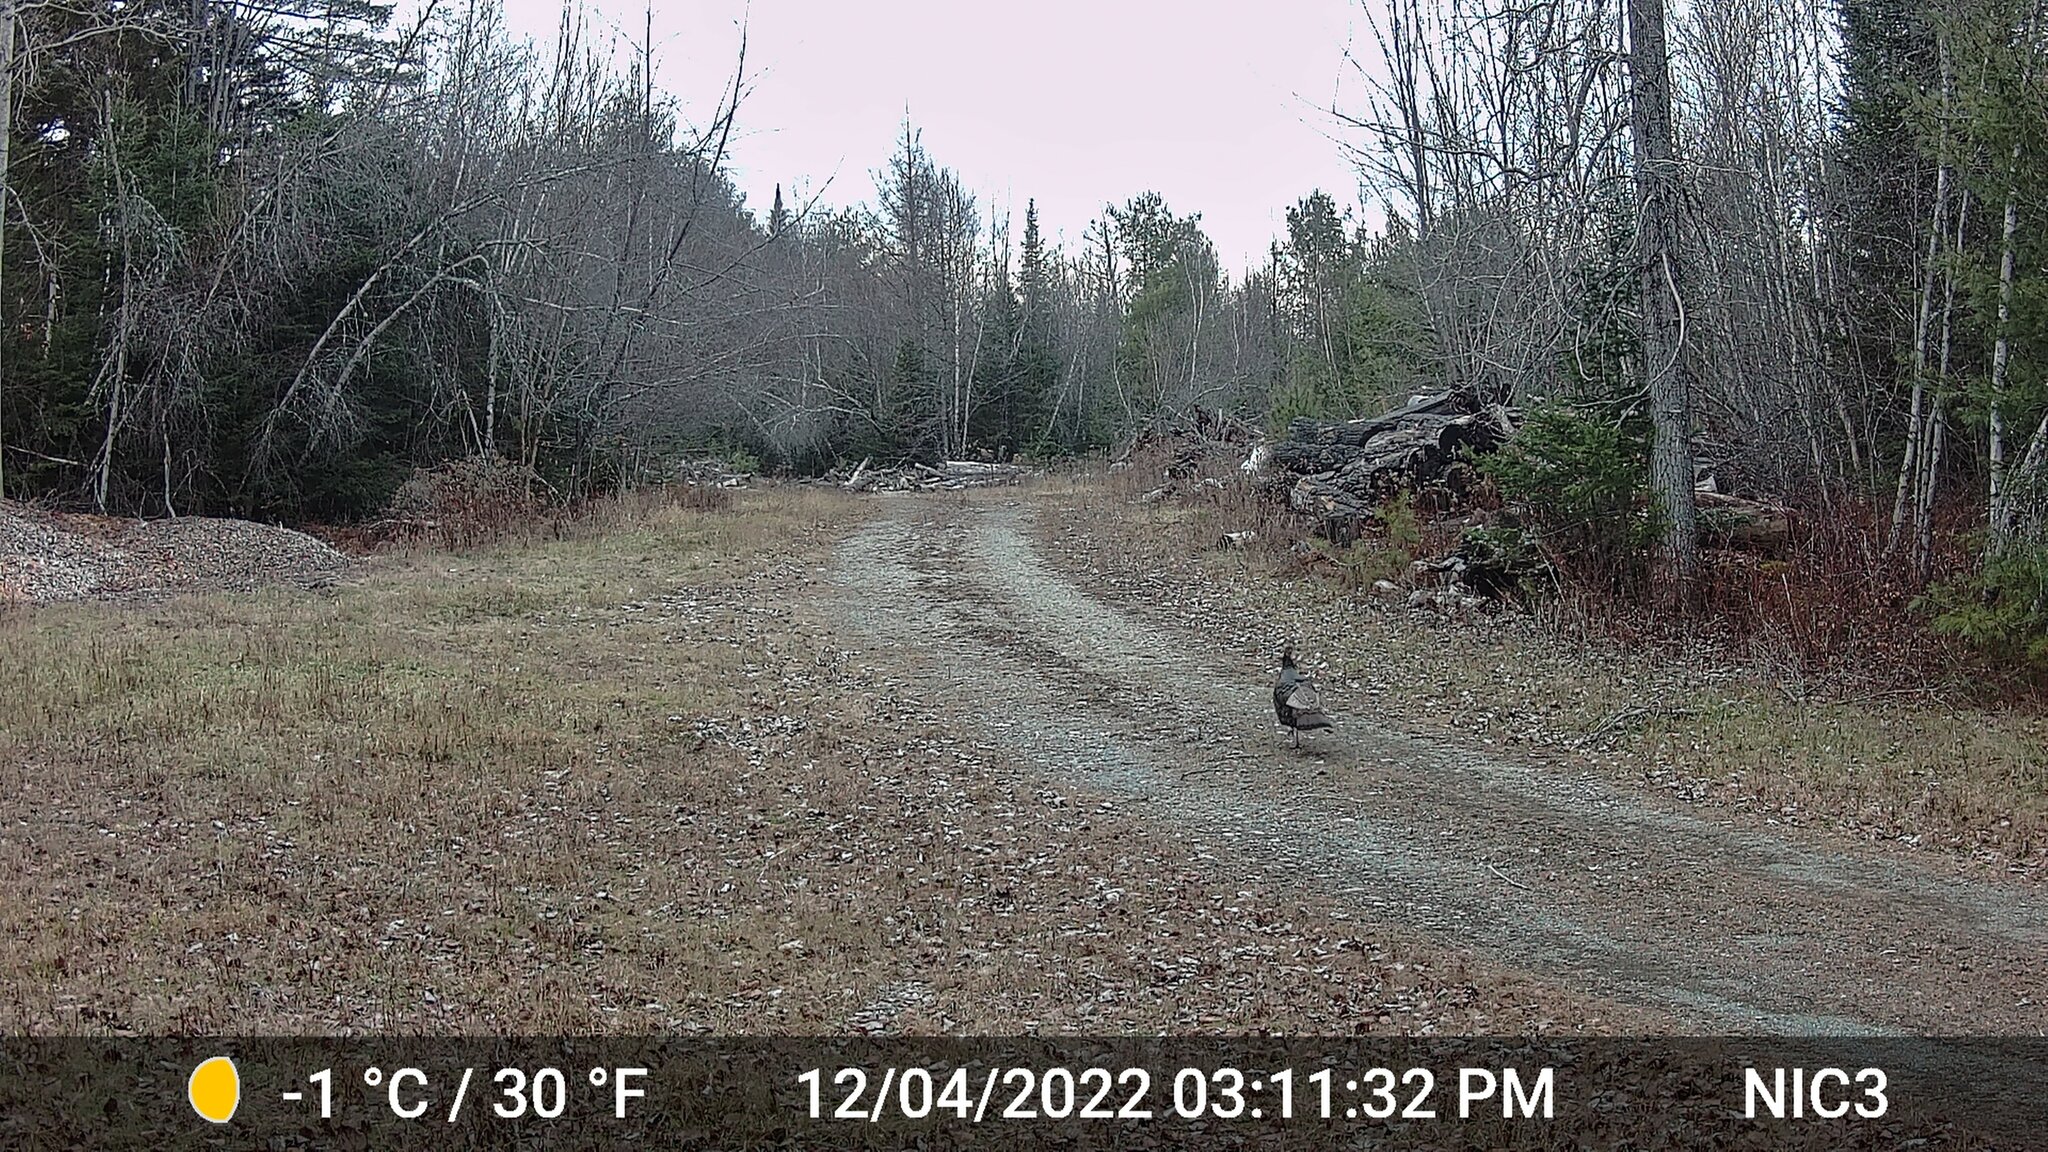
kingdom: Animalia
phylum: Chordata
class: Aves
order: Galliformes
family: Phasianidae
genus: Meleagris
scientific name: Meleagris gallopavo
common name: Wild turkey
